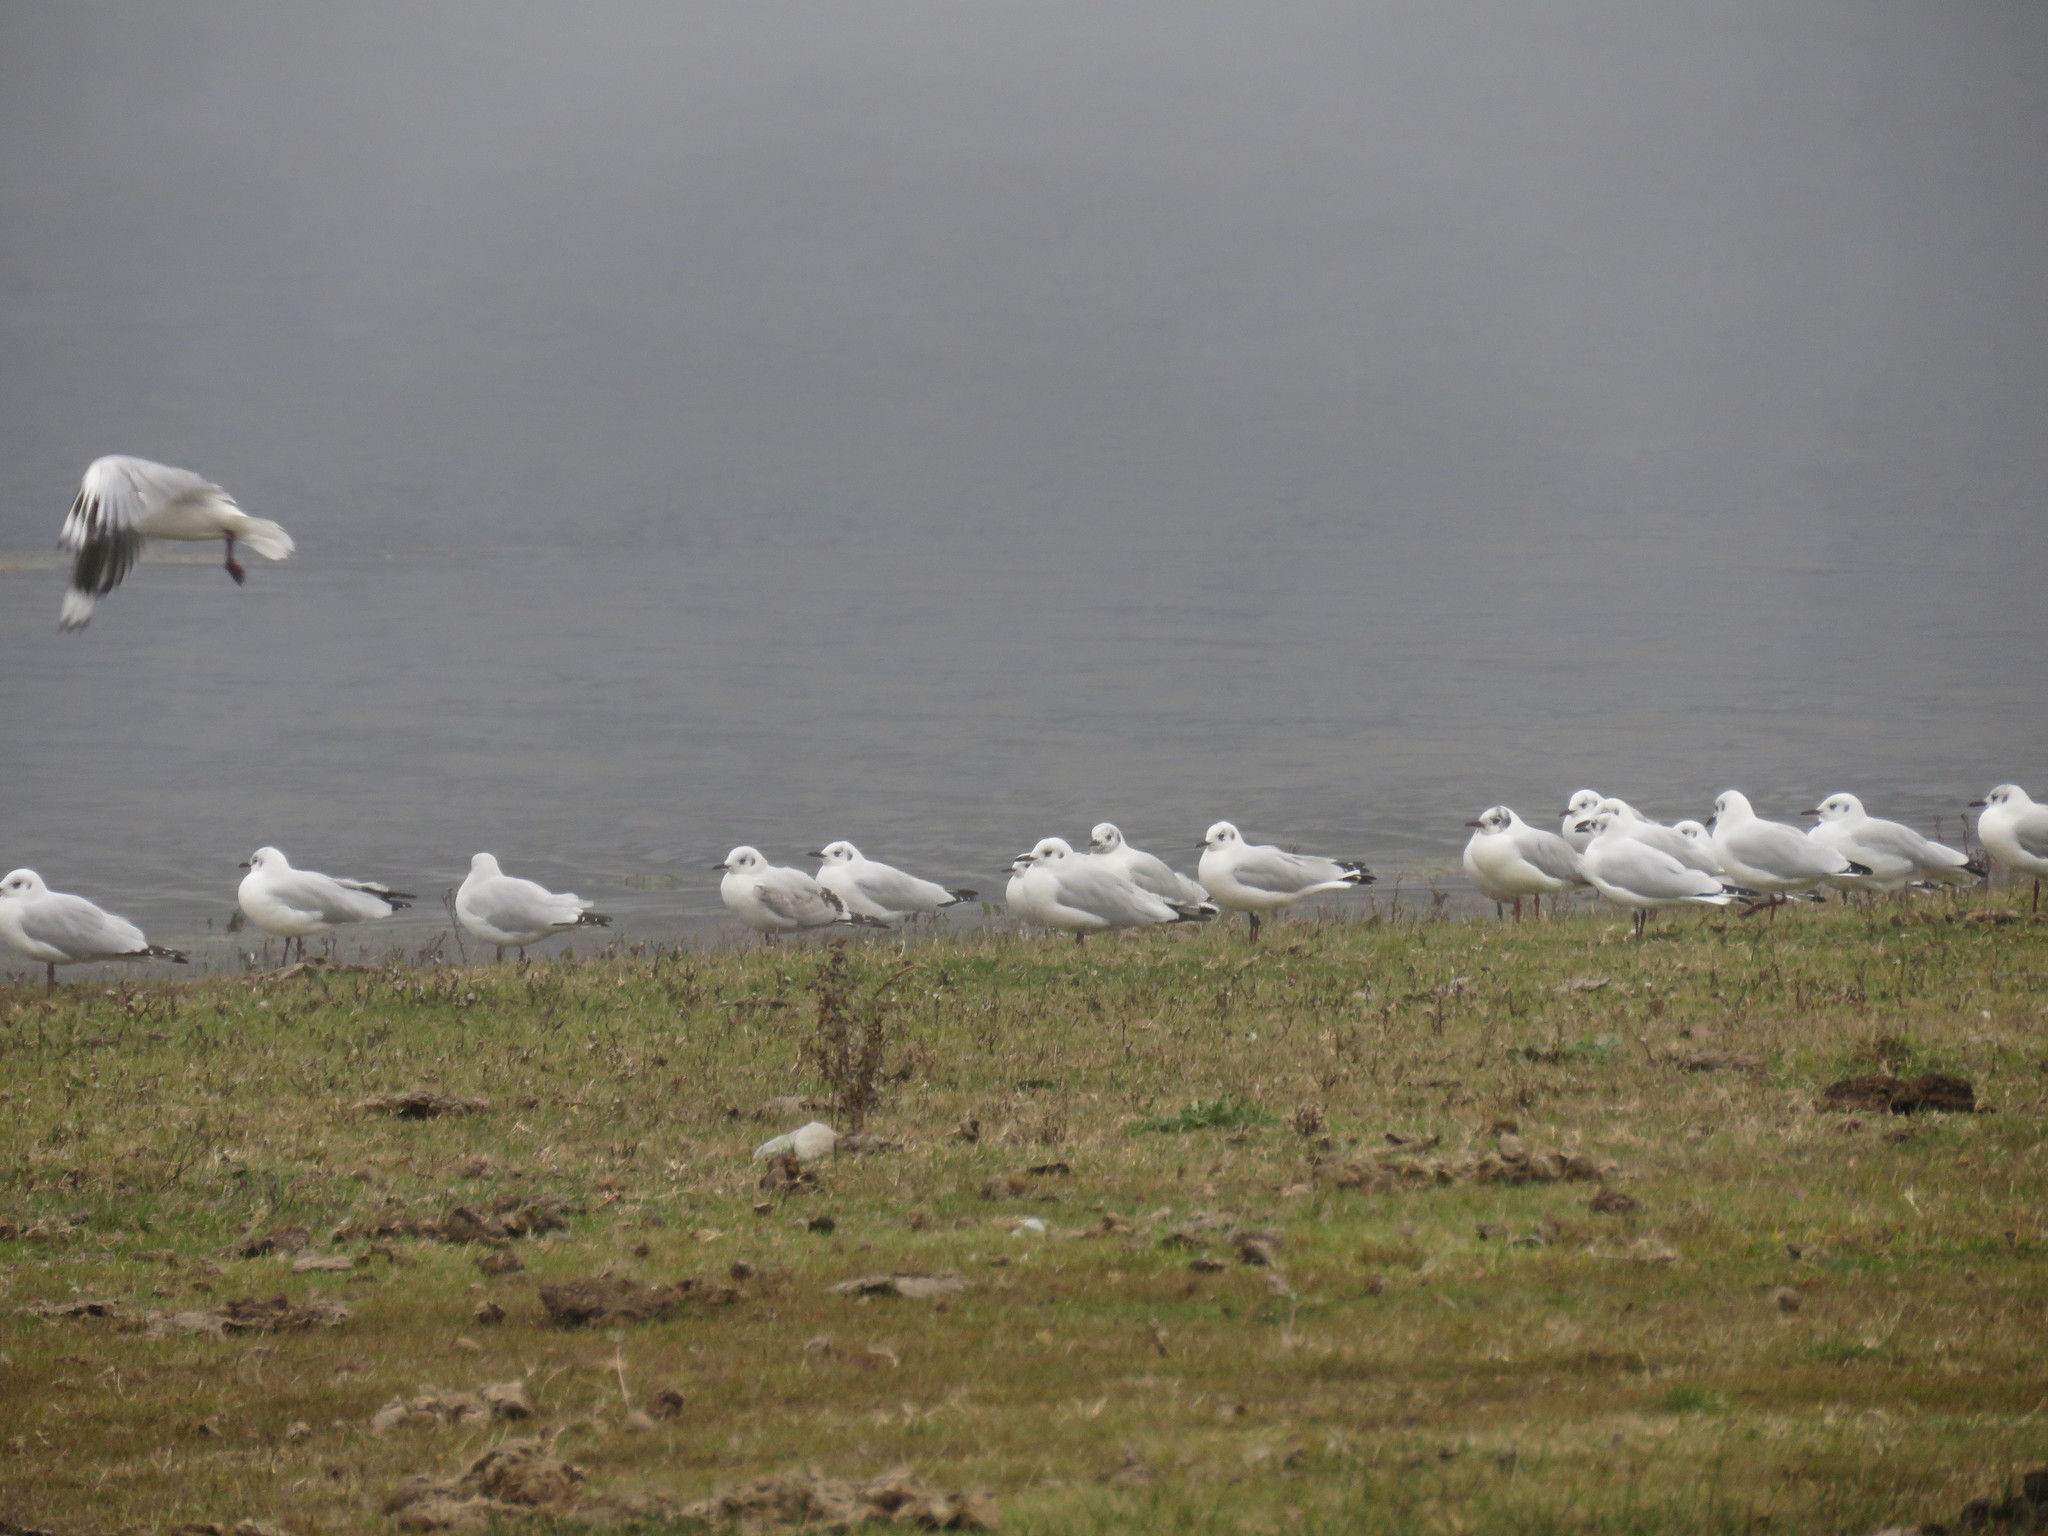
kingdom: Animalia
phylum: Chordata
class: Aves
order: Charadriiformes
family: Laridae
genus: Chroicocephalus
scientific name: Chroicocephalus serranus
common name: Andean gull
